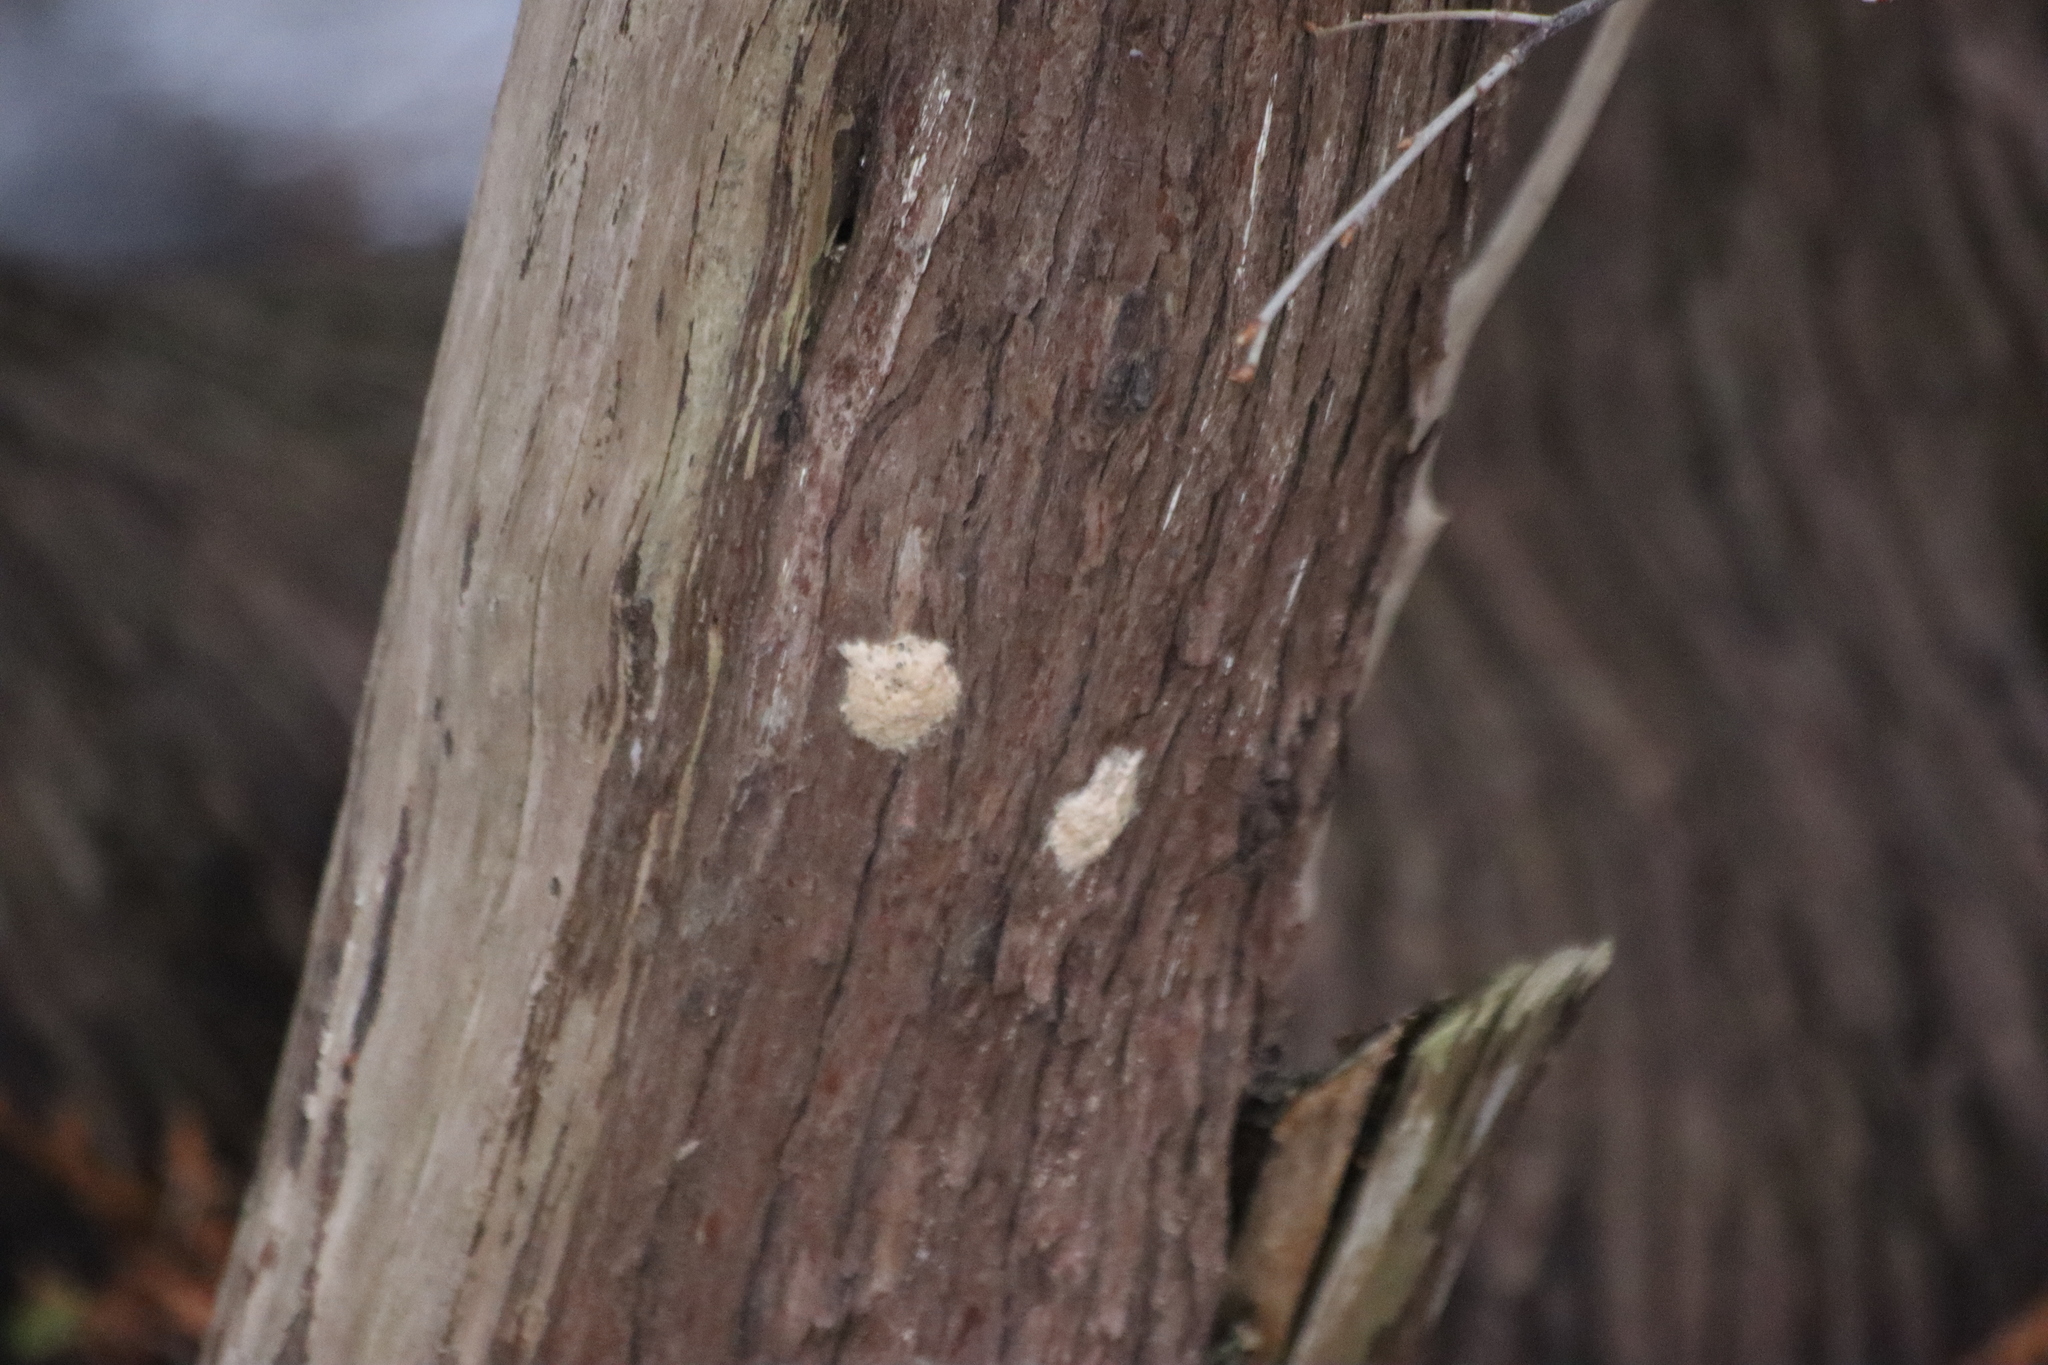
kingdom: Animalia
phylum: Arthropoda
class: Insecta
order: Lepidoptera
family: Erebidae
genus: Lymantria
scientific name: Lymantria dispar
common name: Gypsy moth
